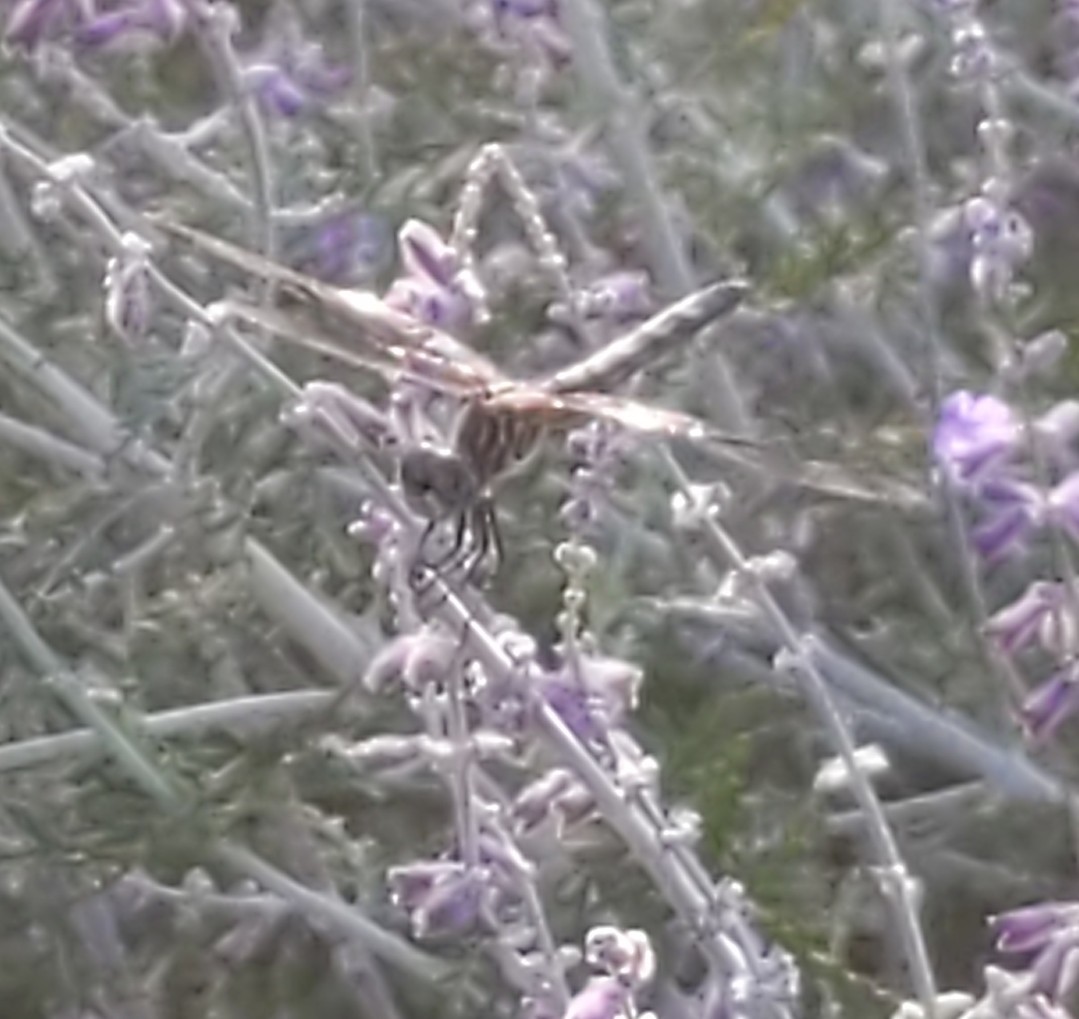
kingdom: Animalia
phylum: Arthropoda
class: Insecta
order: Odonata
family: Libellulidae
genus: Pachydiplax
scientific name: Pachydiplax longipennis
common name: Blue dasher
